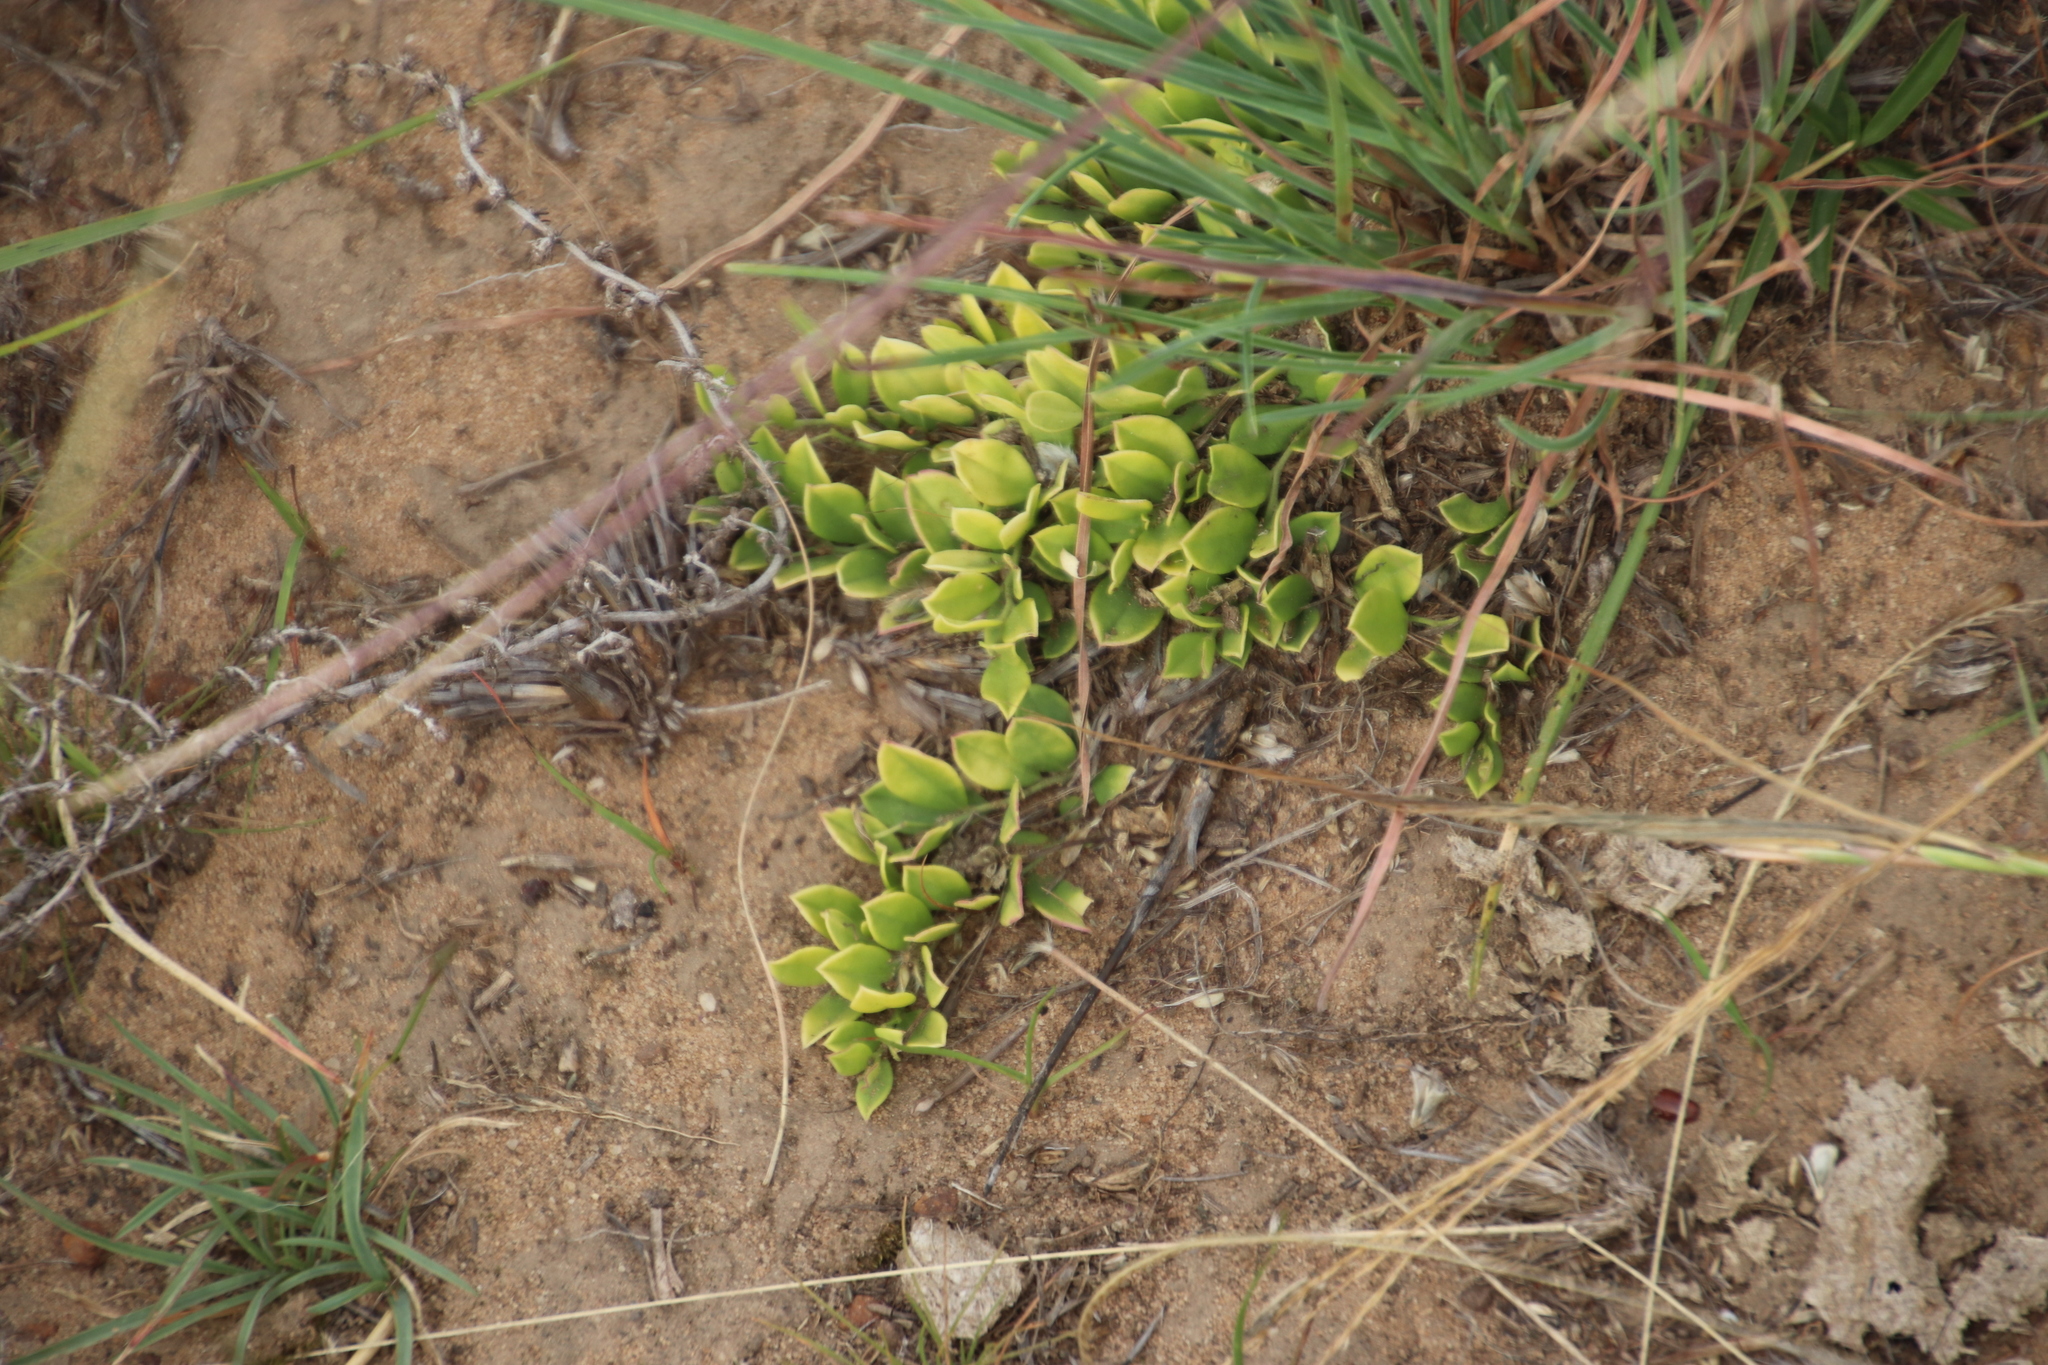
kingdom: Plantae
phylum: Tracheophyta
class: Magnoliopsida
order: Saxifragales
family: Crassulaceae
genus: Crassula
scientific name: Crassula dependens
